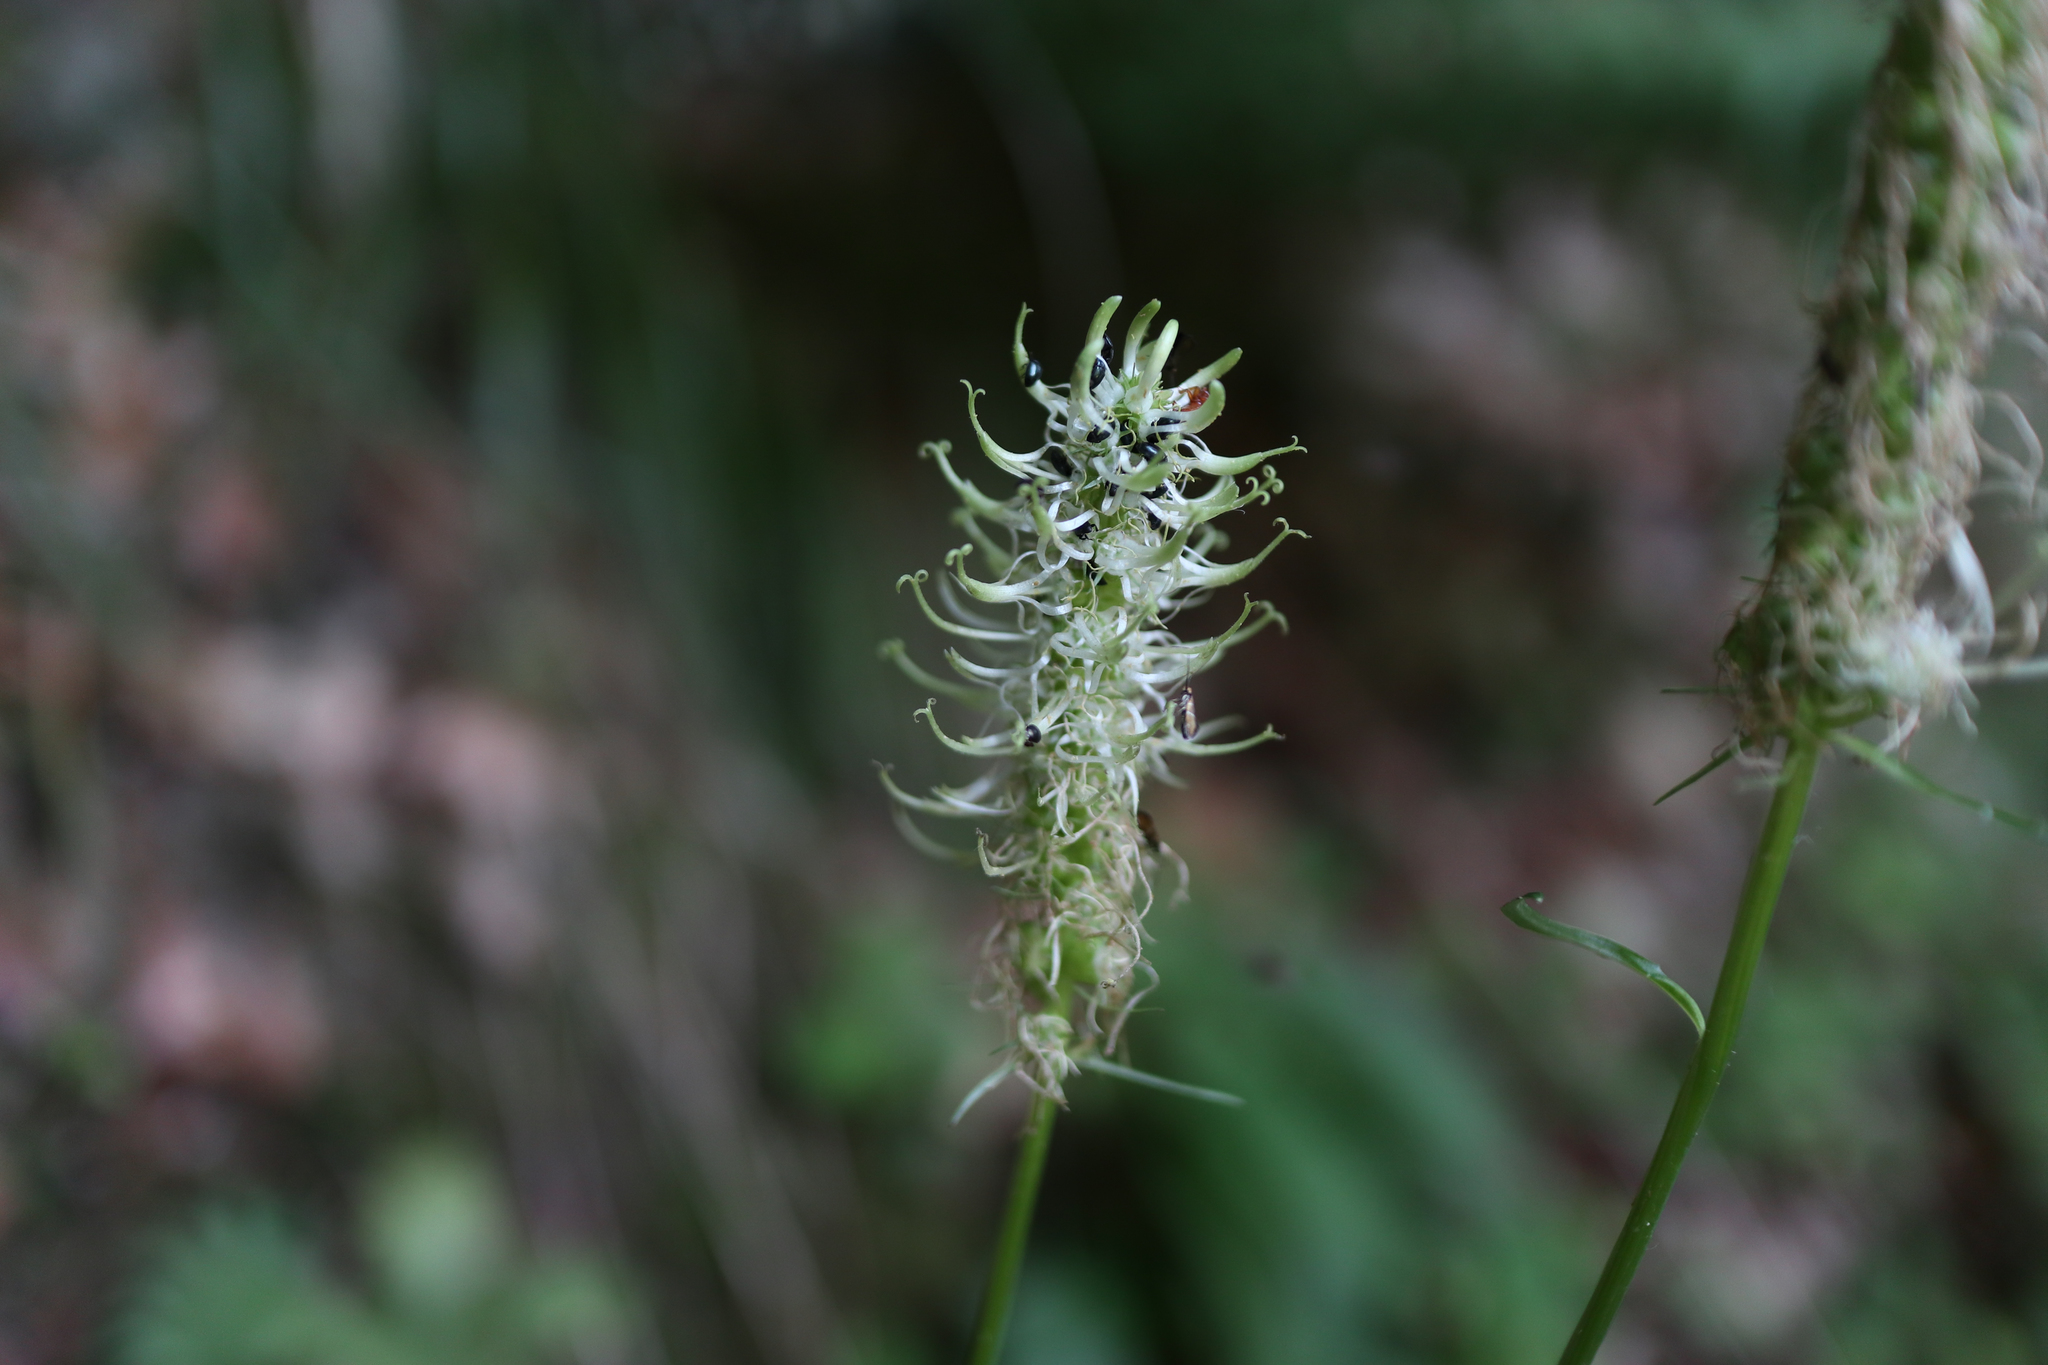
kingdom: Plantae
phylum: Tracheophyta
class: Magnoliopsida
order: Asterales
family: Campanulaceae
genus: Phyteuma
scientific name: Phyteuma spicatum
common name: Spiked rampion
